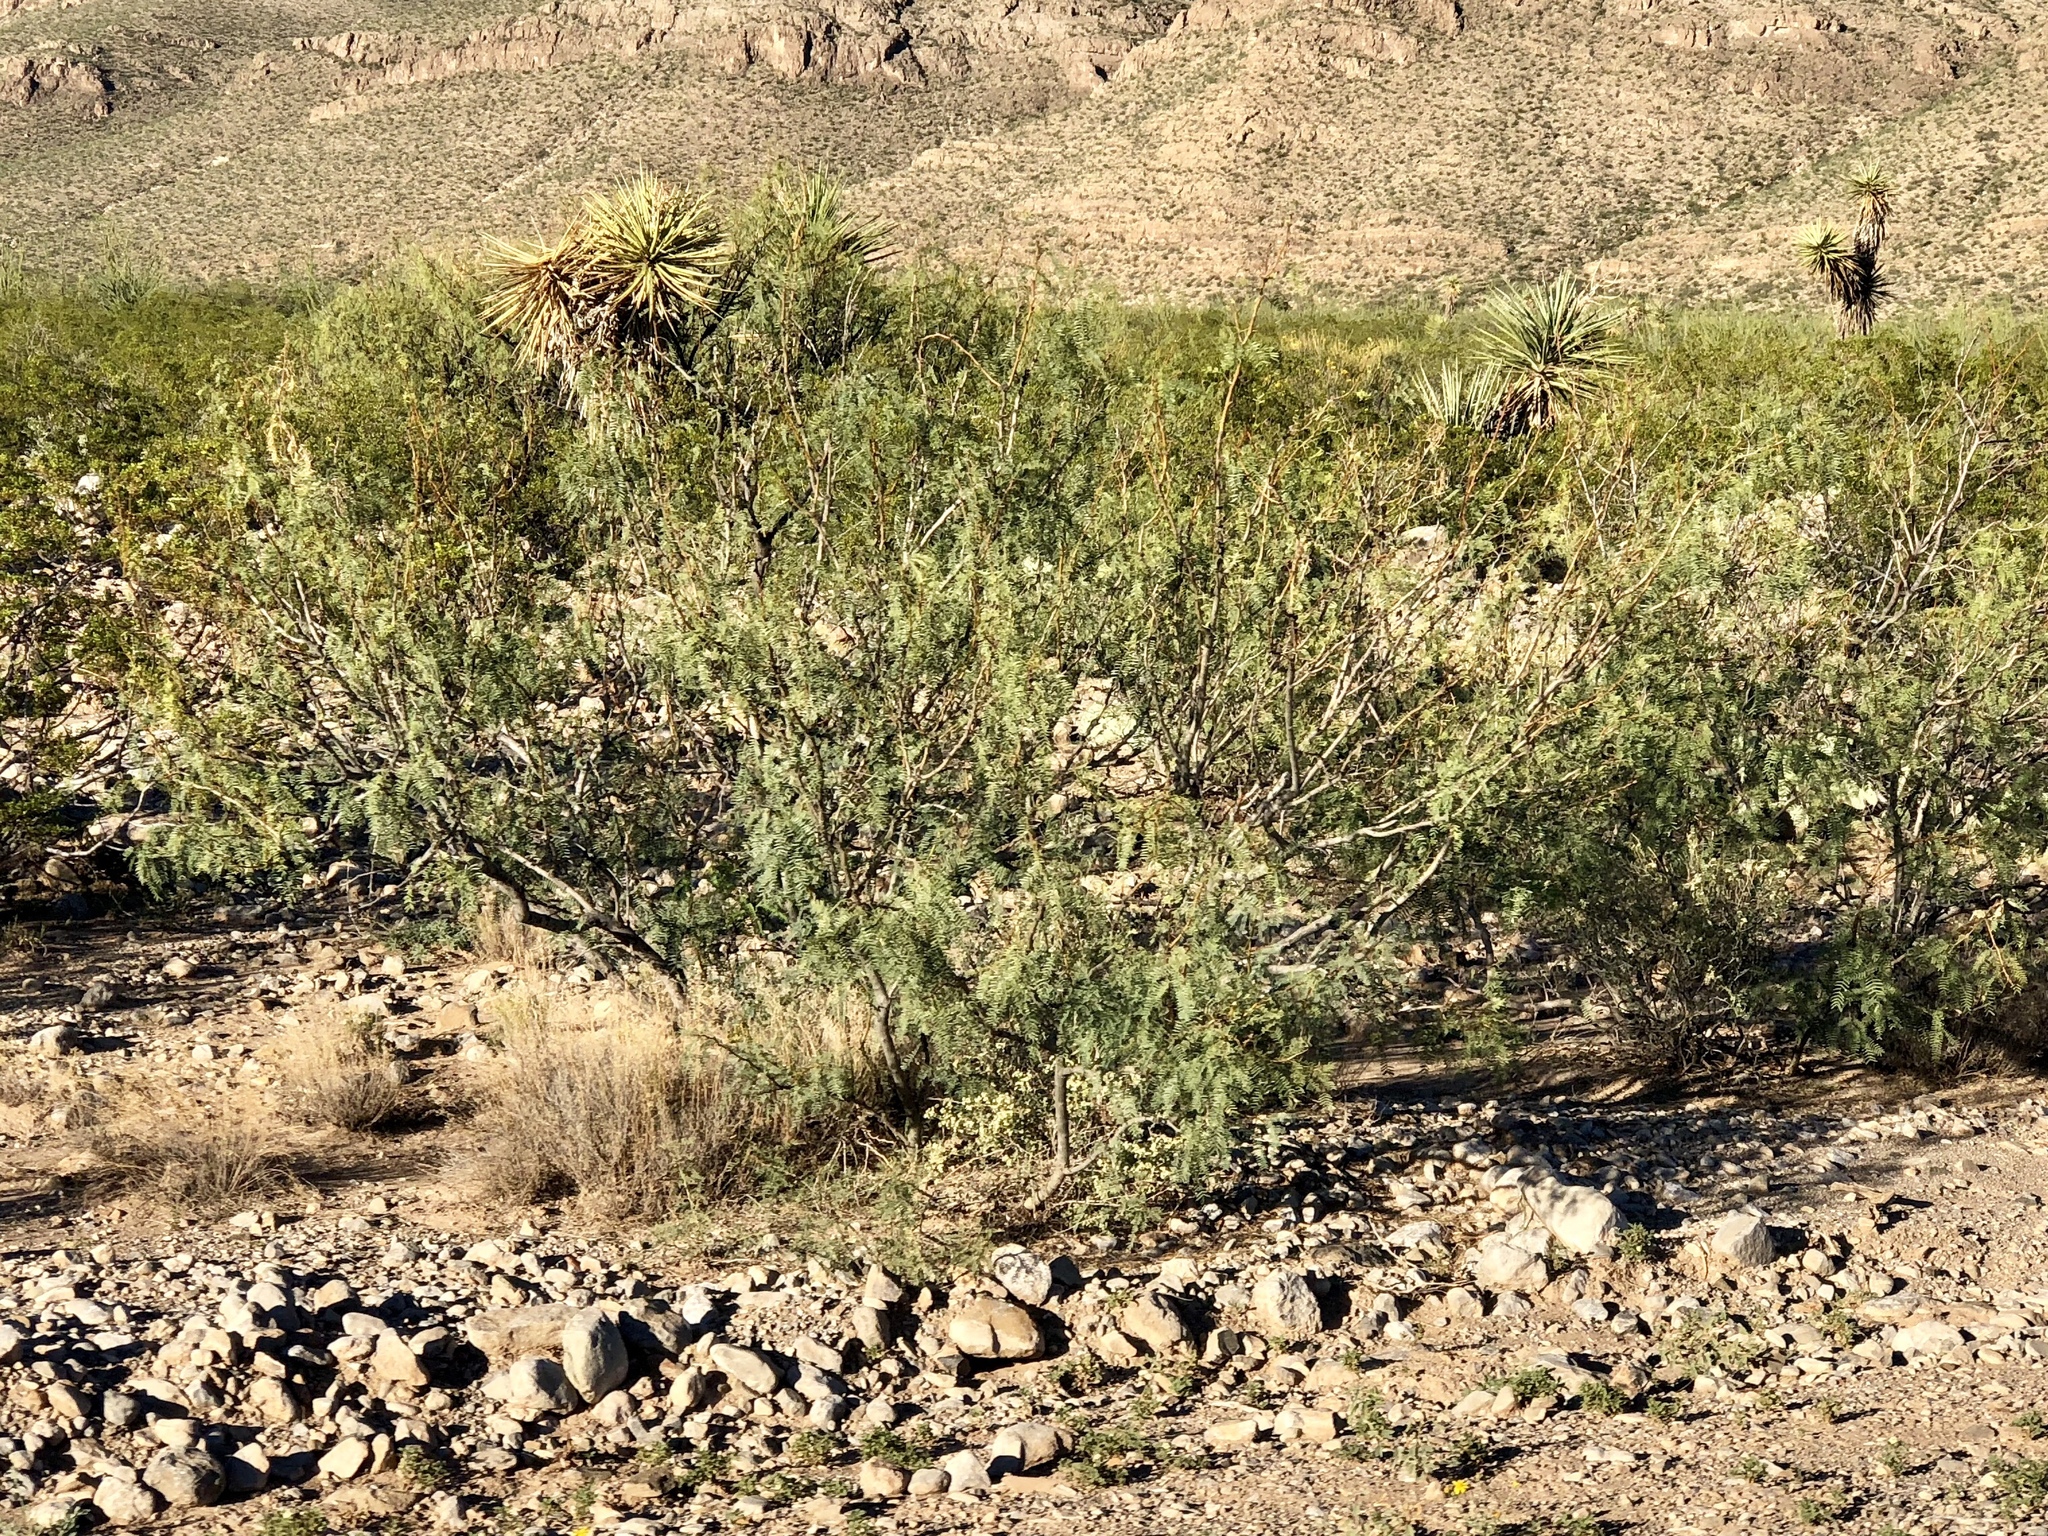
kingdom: Plantae
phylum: Tracheophyta
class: Magnoliopsida
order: Fabales
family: Fabaceae
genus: Prosopis
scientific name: Prosopis glandulosa
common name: Honey mesquite
